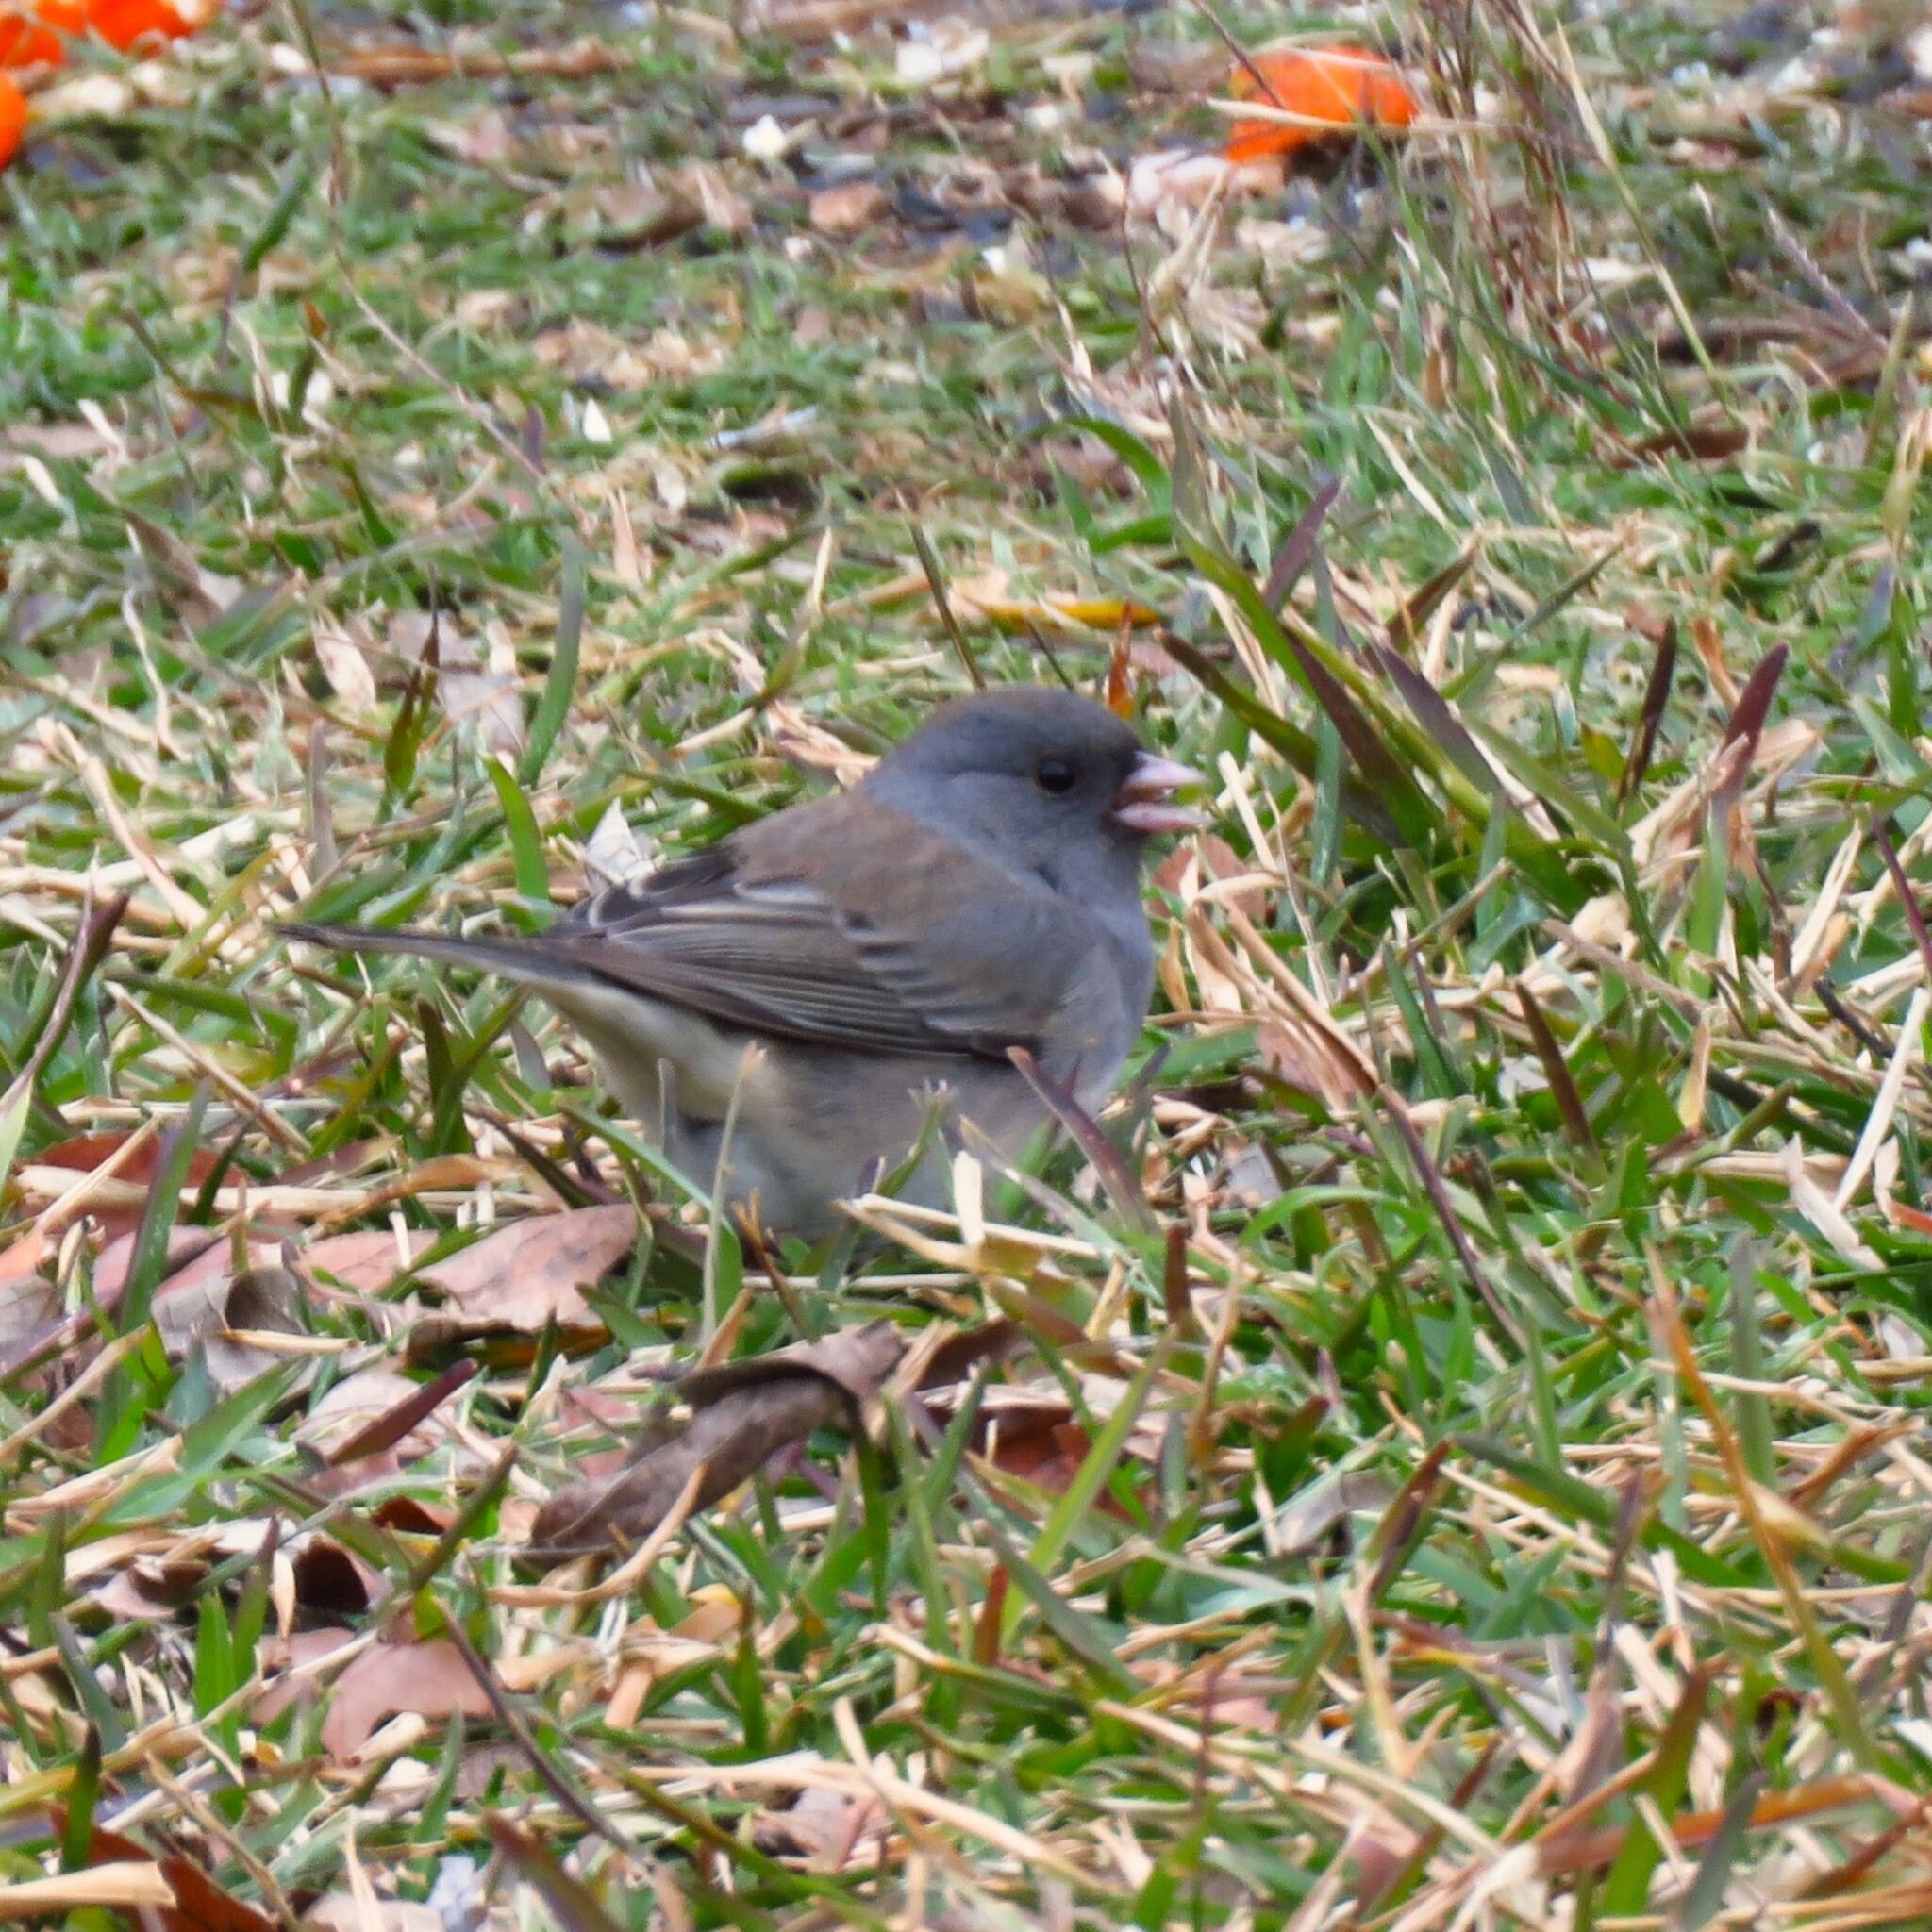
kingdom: Animalia
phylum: Chordata
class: Aves
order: Passeriformes
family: Passerellidae
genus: Junco
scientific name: Junco hyemalis
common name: Dark-eyed junco
